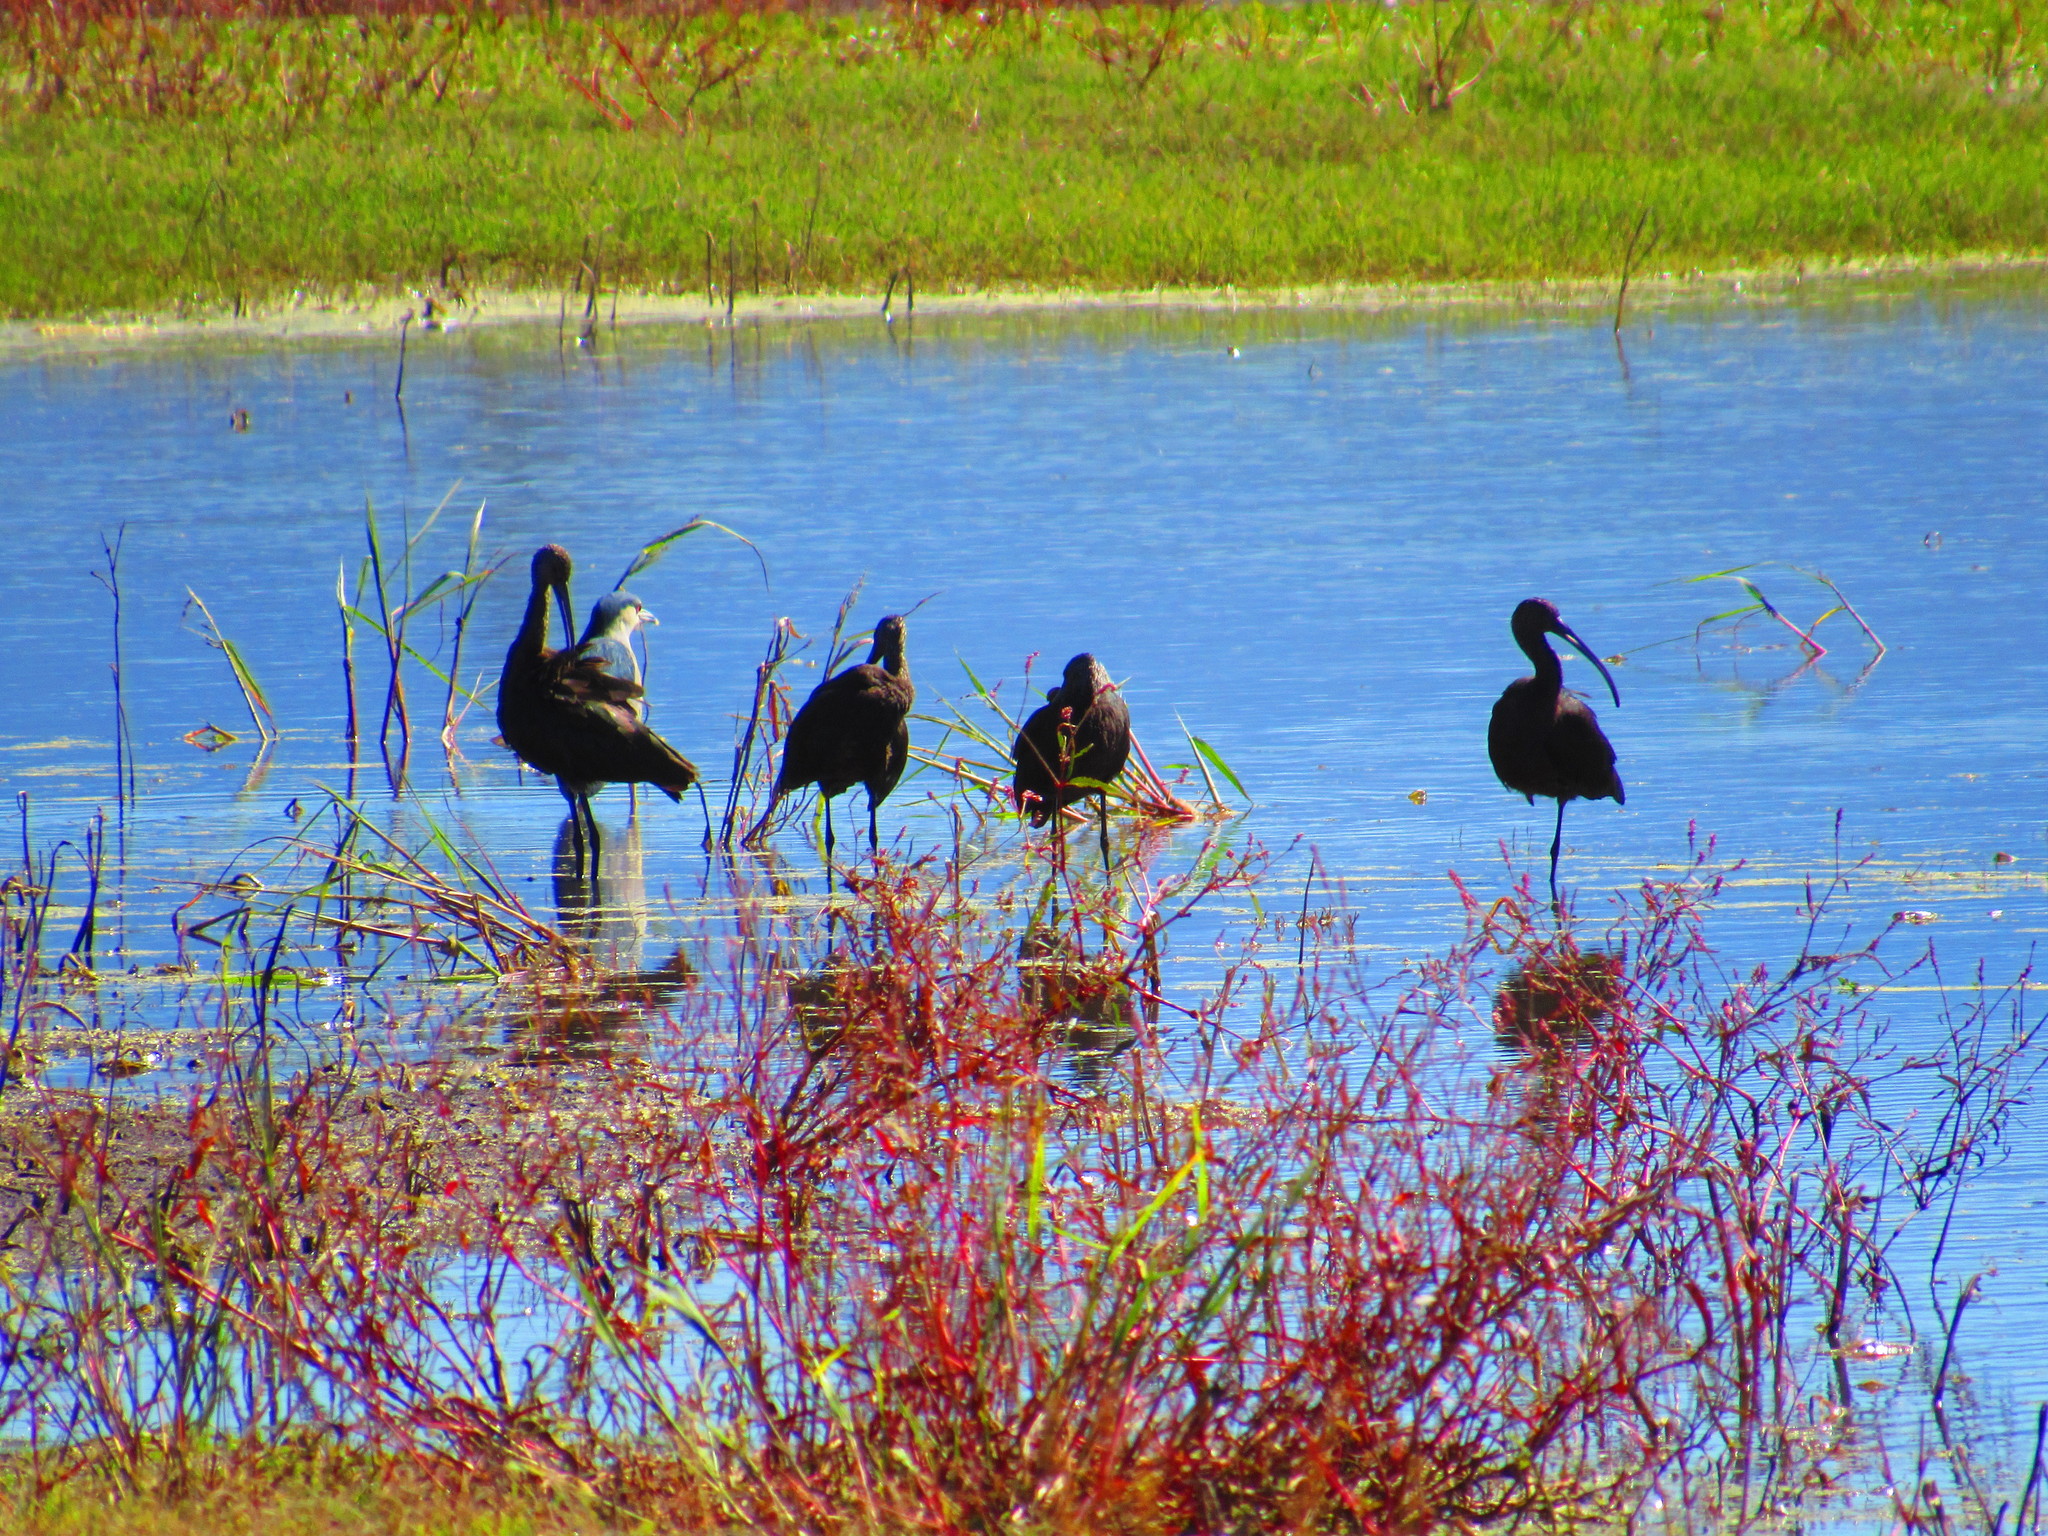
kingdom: Animalia
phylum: Chordata
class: Aves
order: Pelecaniformes
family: Threskiornithidae
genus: Plegadis
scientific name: Plegadis chihi
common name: White-faced ibis
